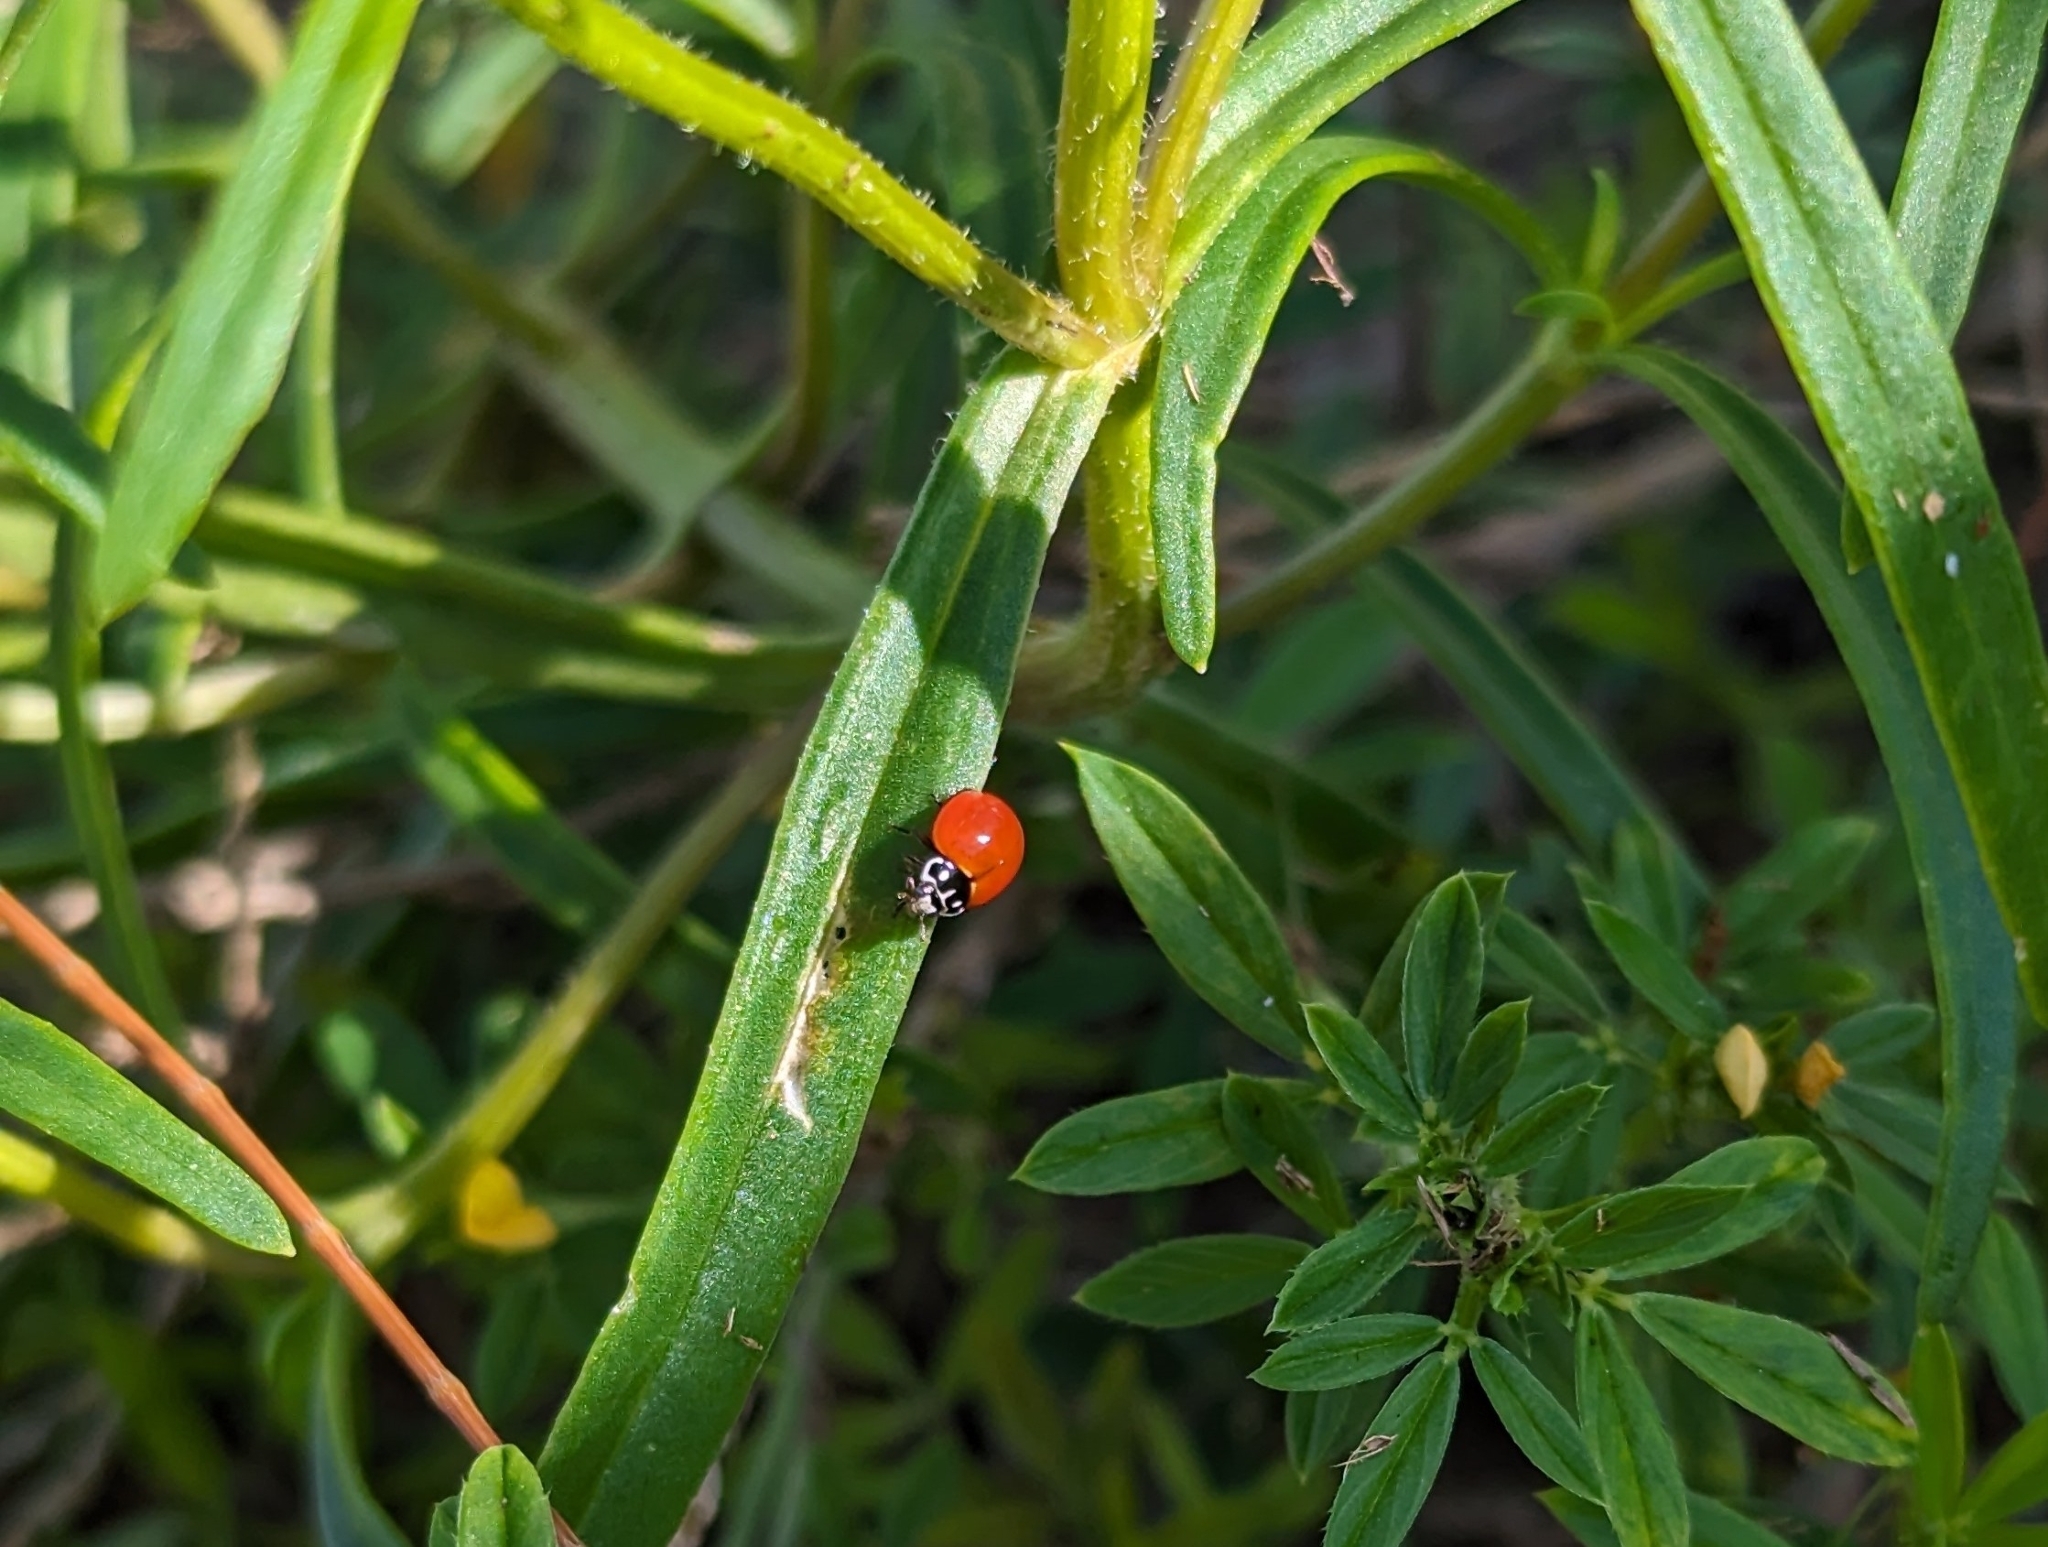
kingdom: Animalia
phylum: Arthropoda
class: Insecta
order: Coleoptera
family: Coccinellidae
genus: Cycloneda
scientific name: Cycloneda sanguinea
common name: Ladybird beetle
